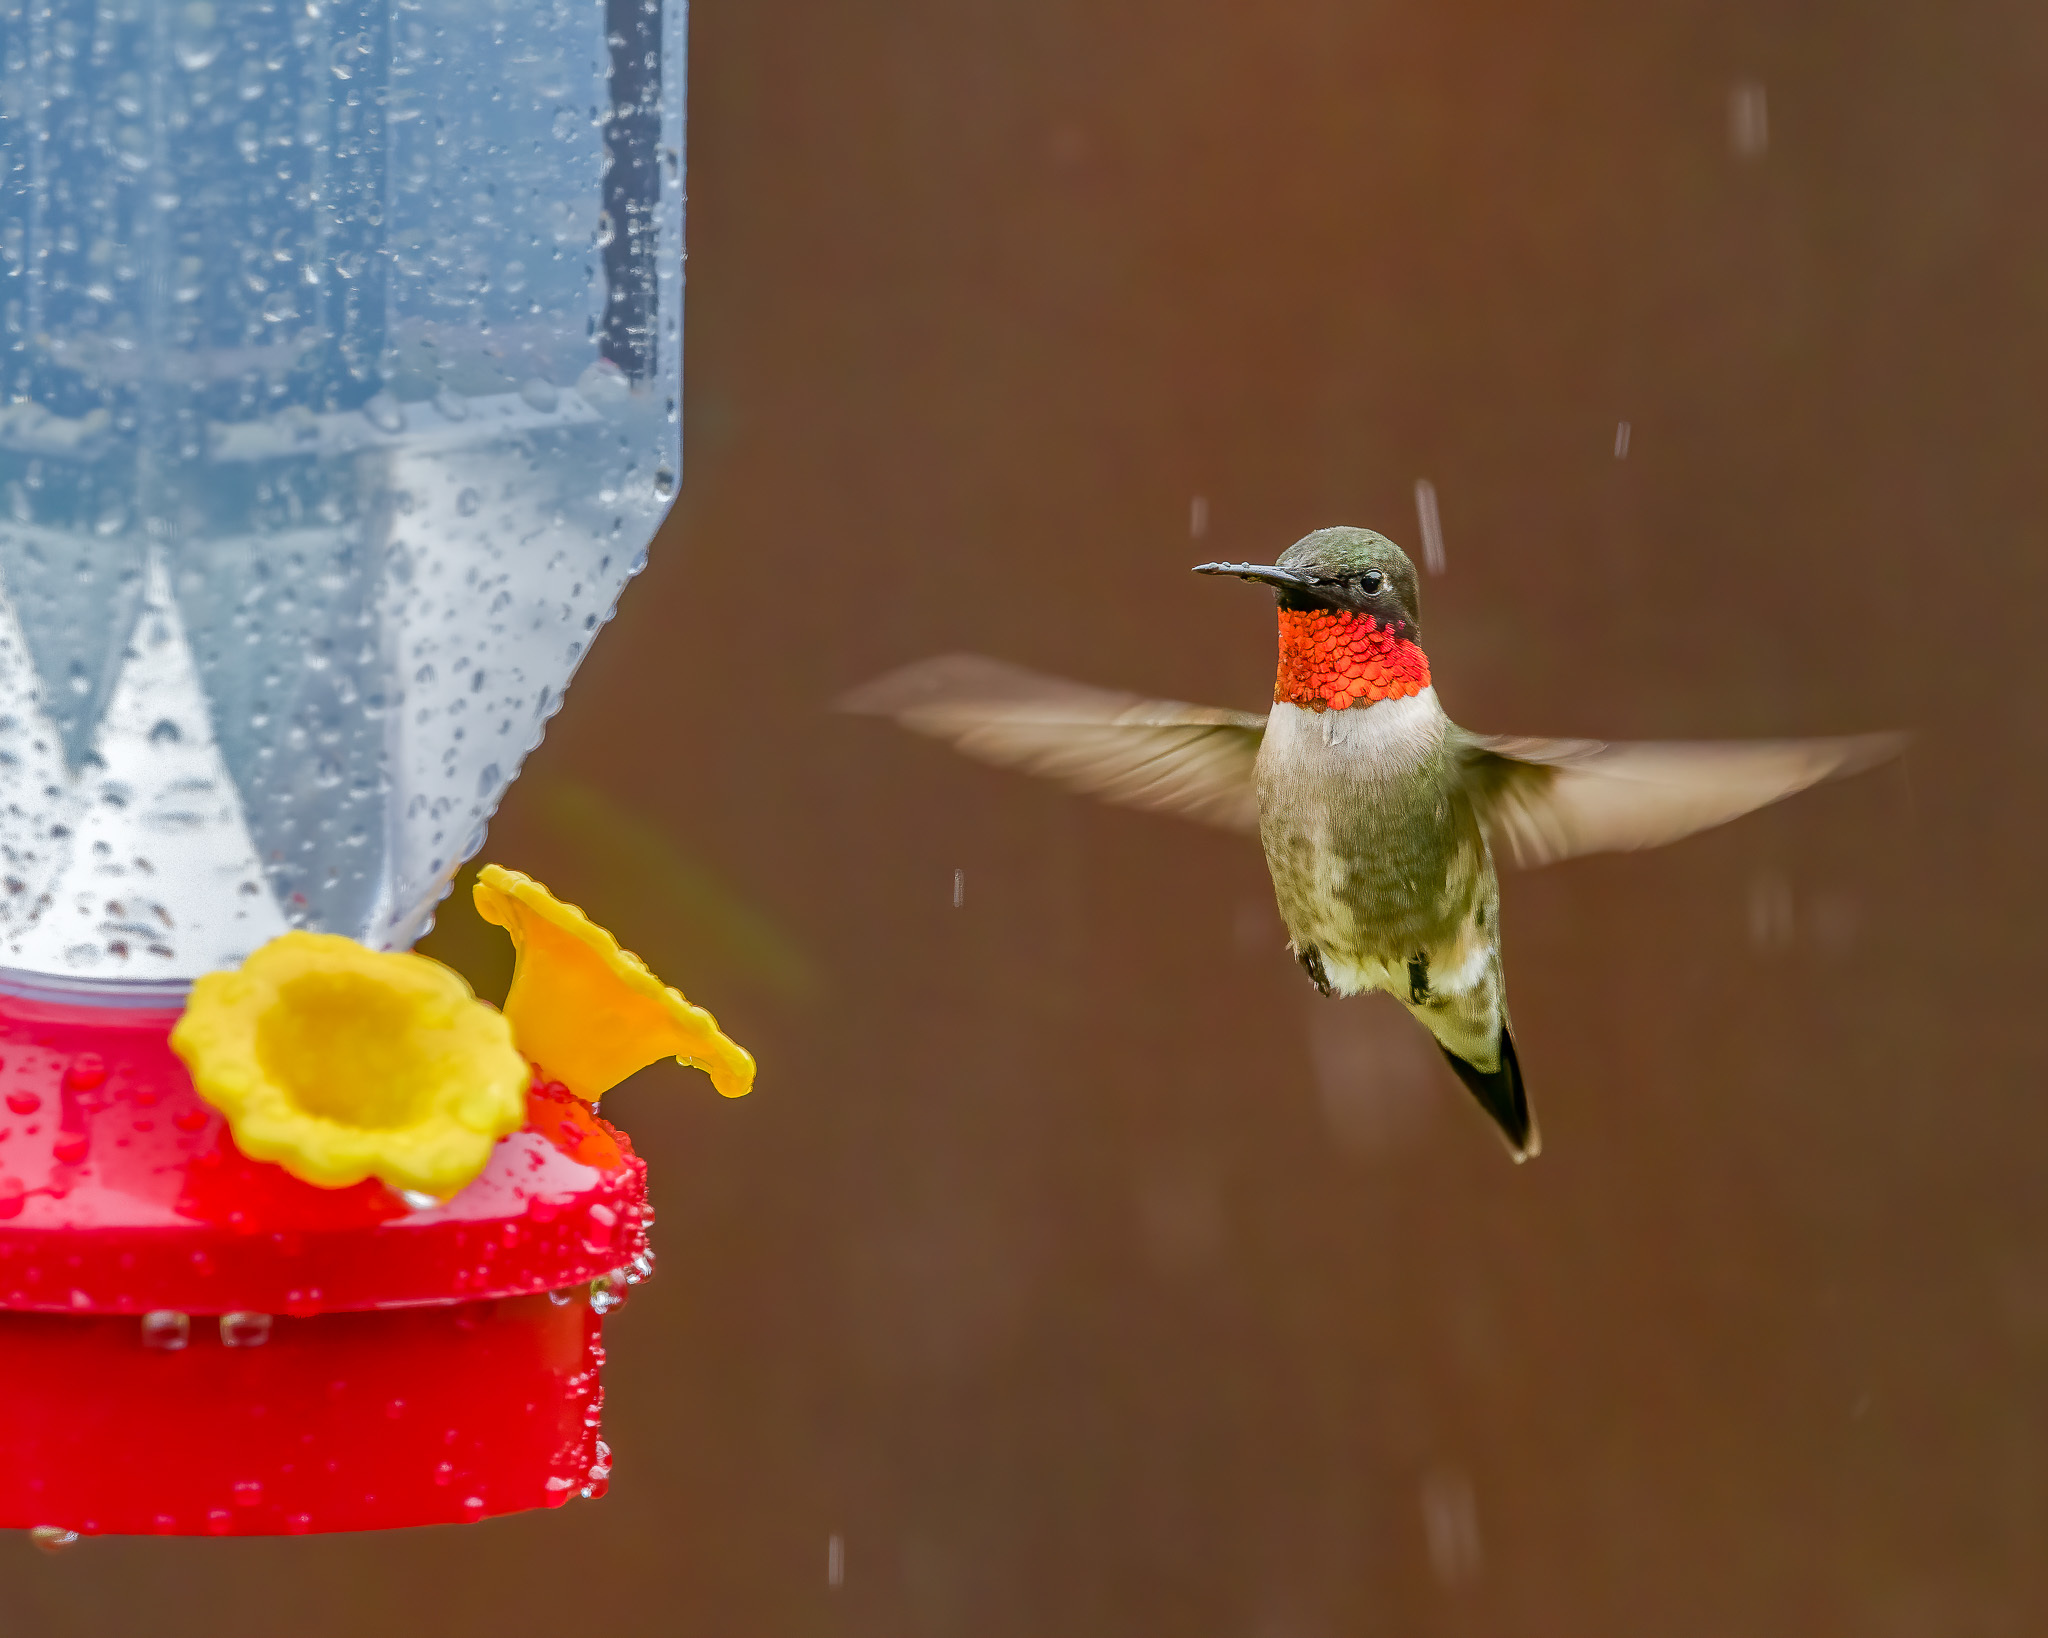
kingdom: Animalia
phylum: Chordata
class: Aves
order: Apodiformes
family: Trochilidae
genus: Archilochus
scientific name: Archilochus colubris
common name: Ruby-throated hummingbird
